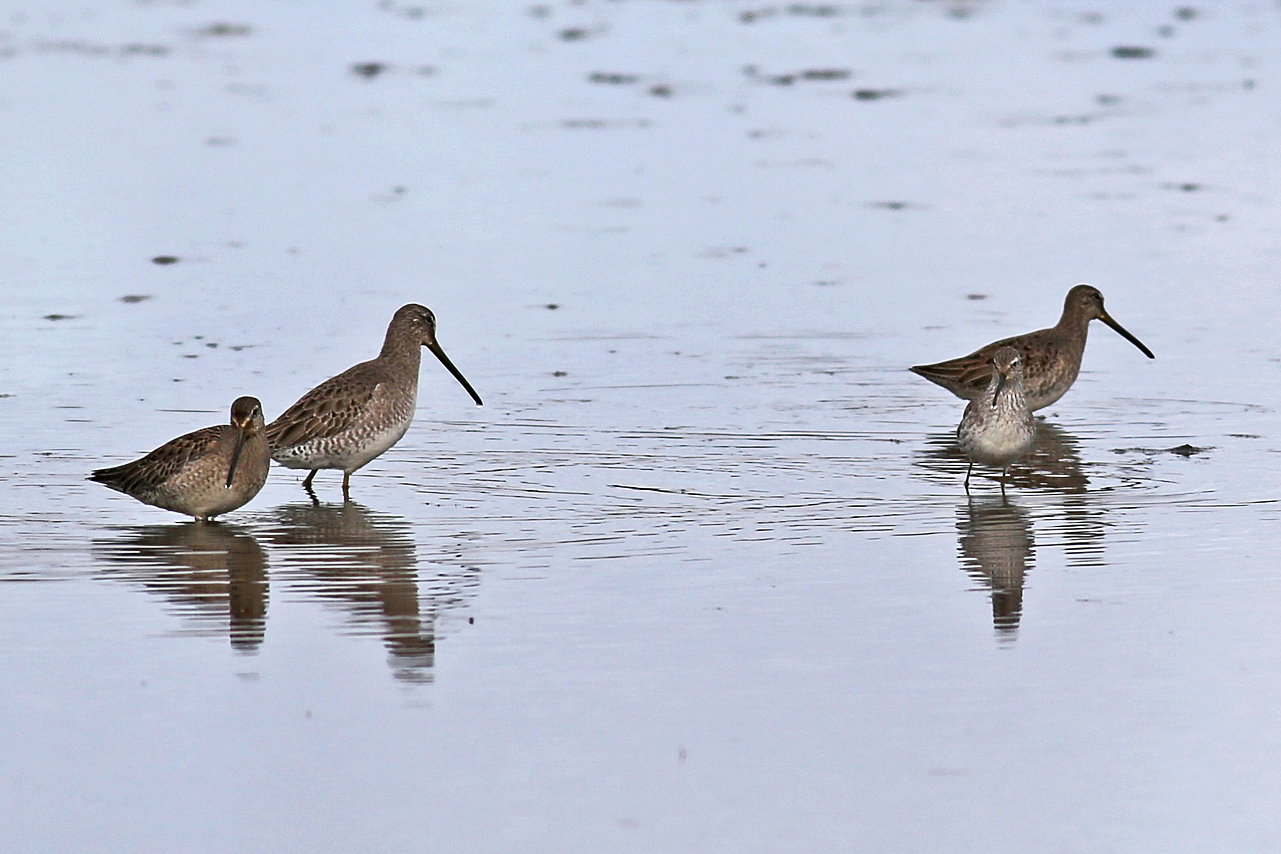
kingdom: Animalia
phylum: Chordata
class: Aves
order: Charadriiformes
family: Scolopacidae
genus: Limnodromus
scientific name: Limnodromus scolopaceus
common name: Long-billed dowitcher
